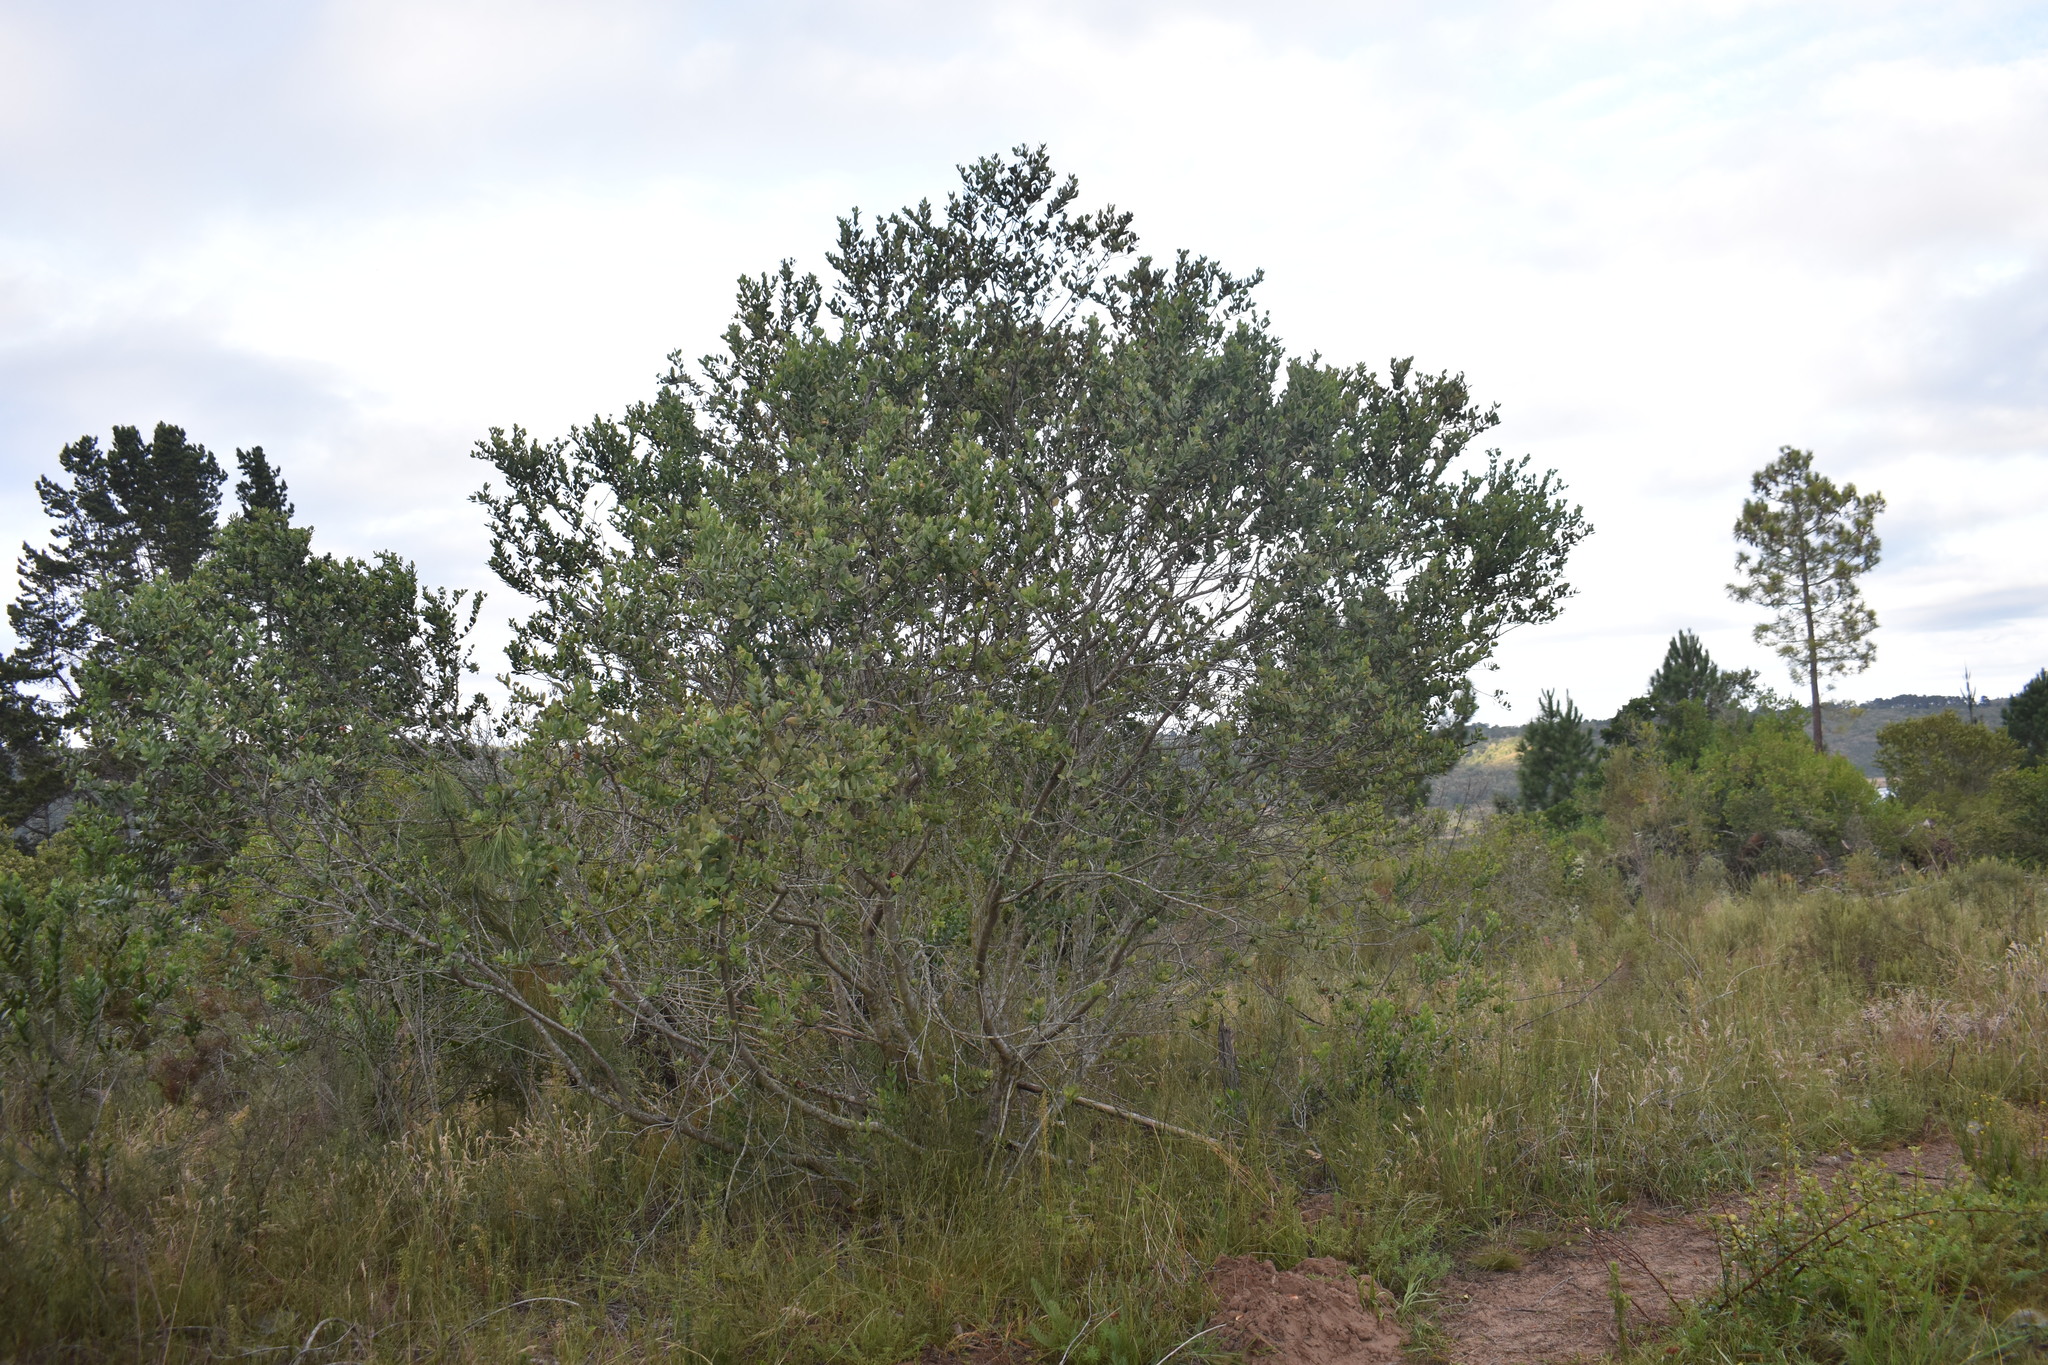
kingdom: Plantae
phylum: Tracheophyta
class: Magnoliopsida
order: Santalales
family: Santalaceae
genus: Osyris
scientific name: Osyris compressa
